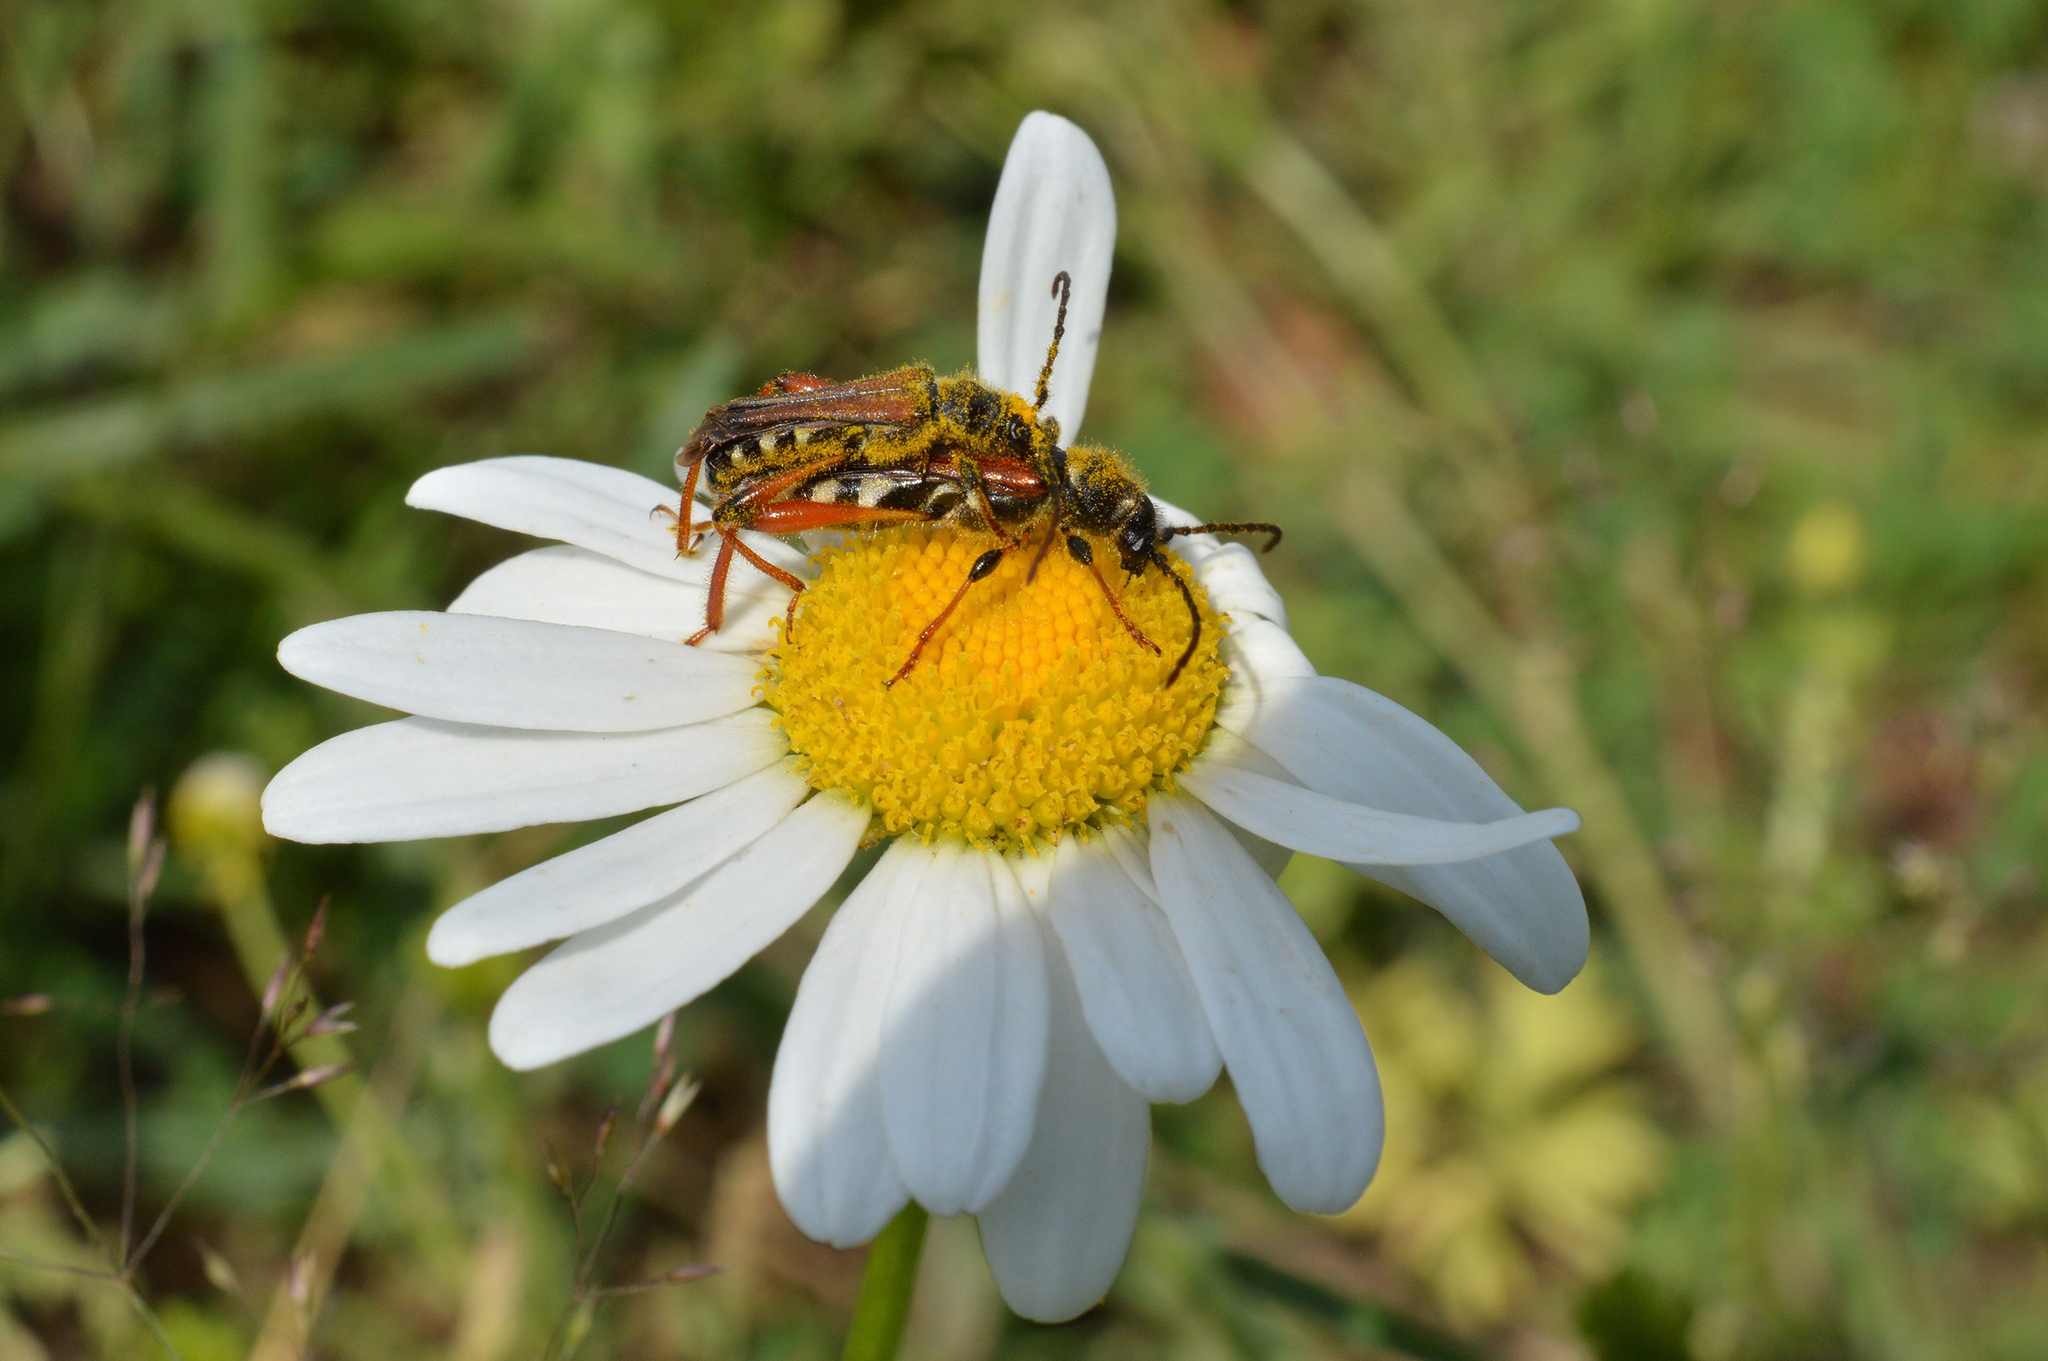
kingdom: Animalia
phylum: Arthropoda
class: Insecta
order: Coleoptera
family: Cerambycidae
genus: Stenopterus
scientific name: Stenopterus rufus
